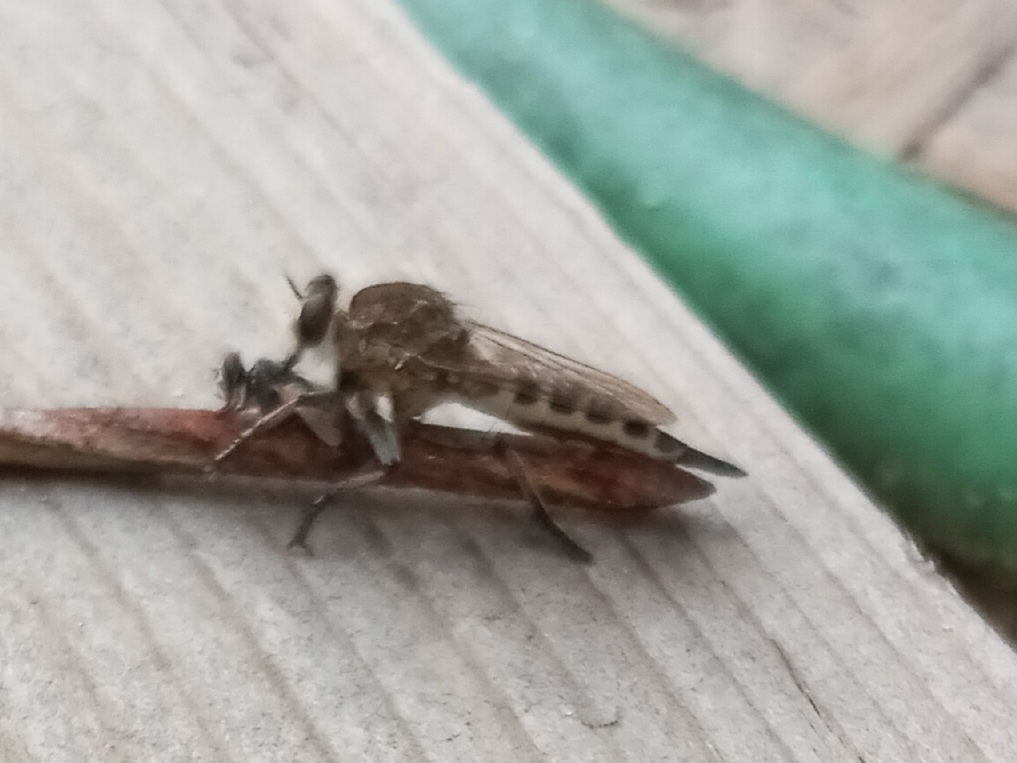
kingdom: Animalia
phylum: Arthropoda
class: Insecta
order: Diptera
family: Asilidae
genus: Efferia
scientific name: Efferia albibarbis
